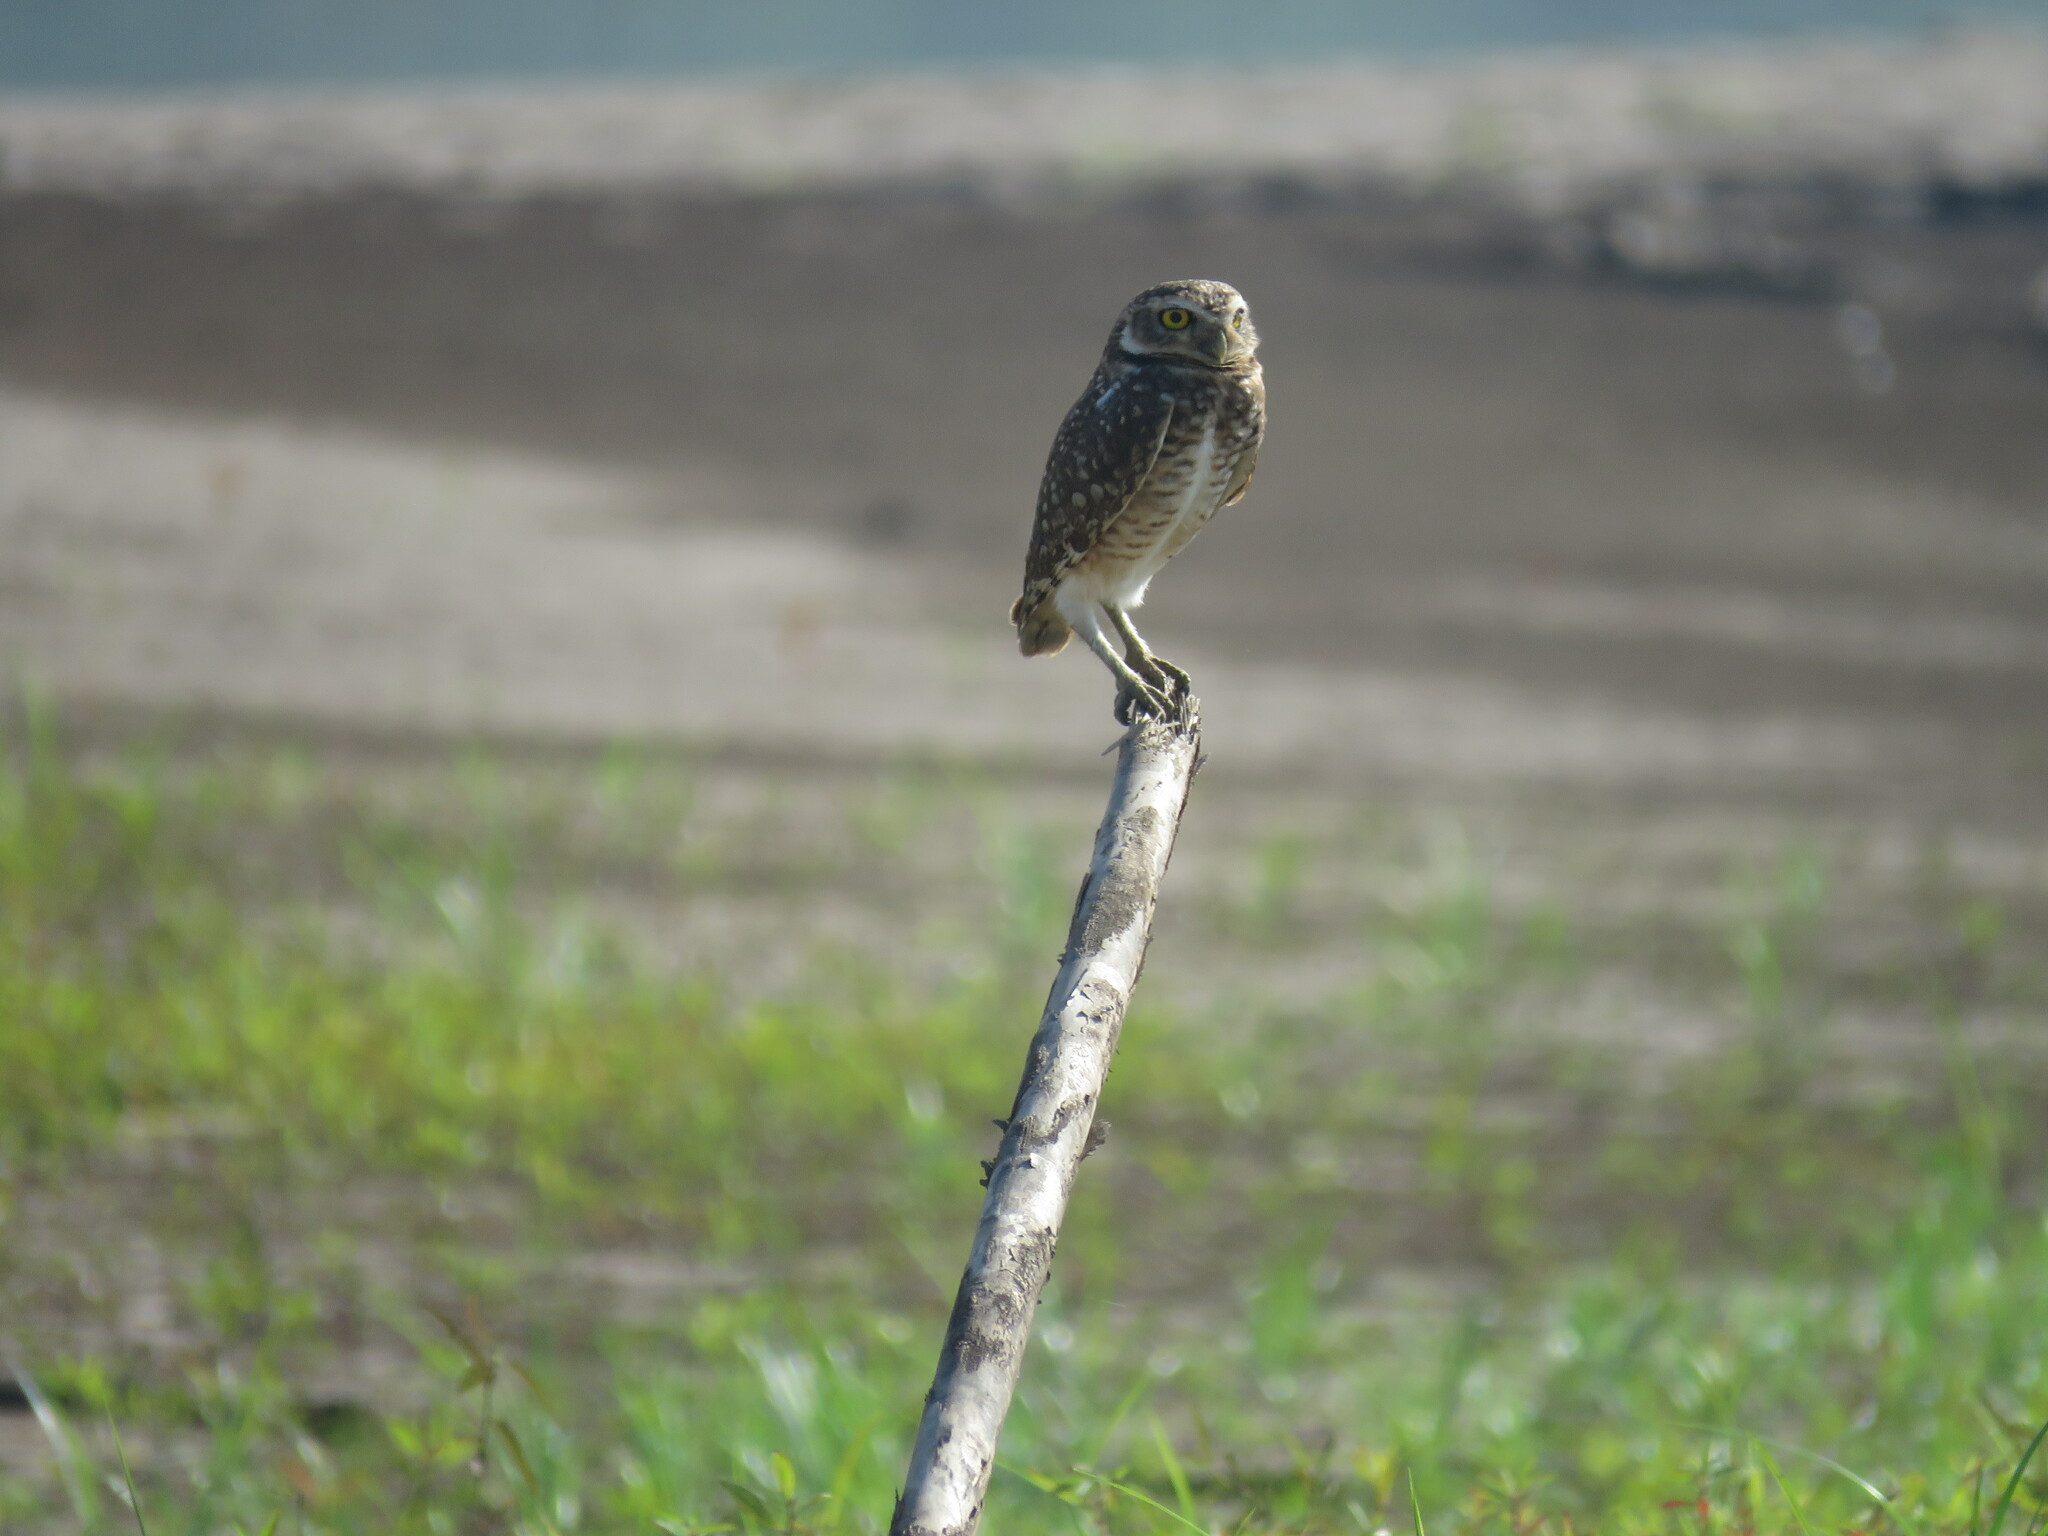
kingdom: Animalia
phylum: Chordata
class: Aves
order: Strigiformes
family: Strigidae
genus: Athene
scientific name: Athene cunicularia
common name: Burrowing owl
